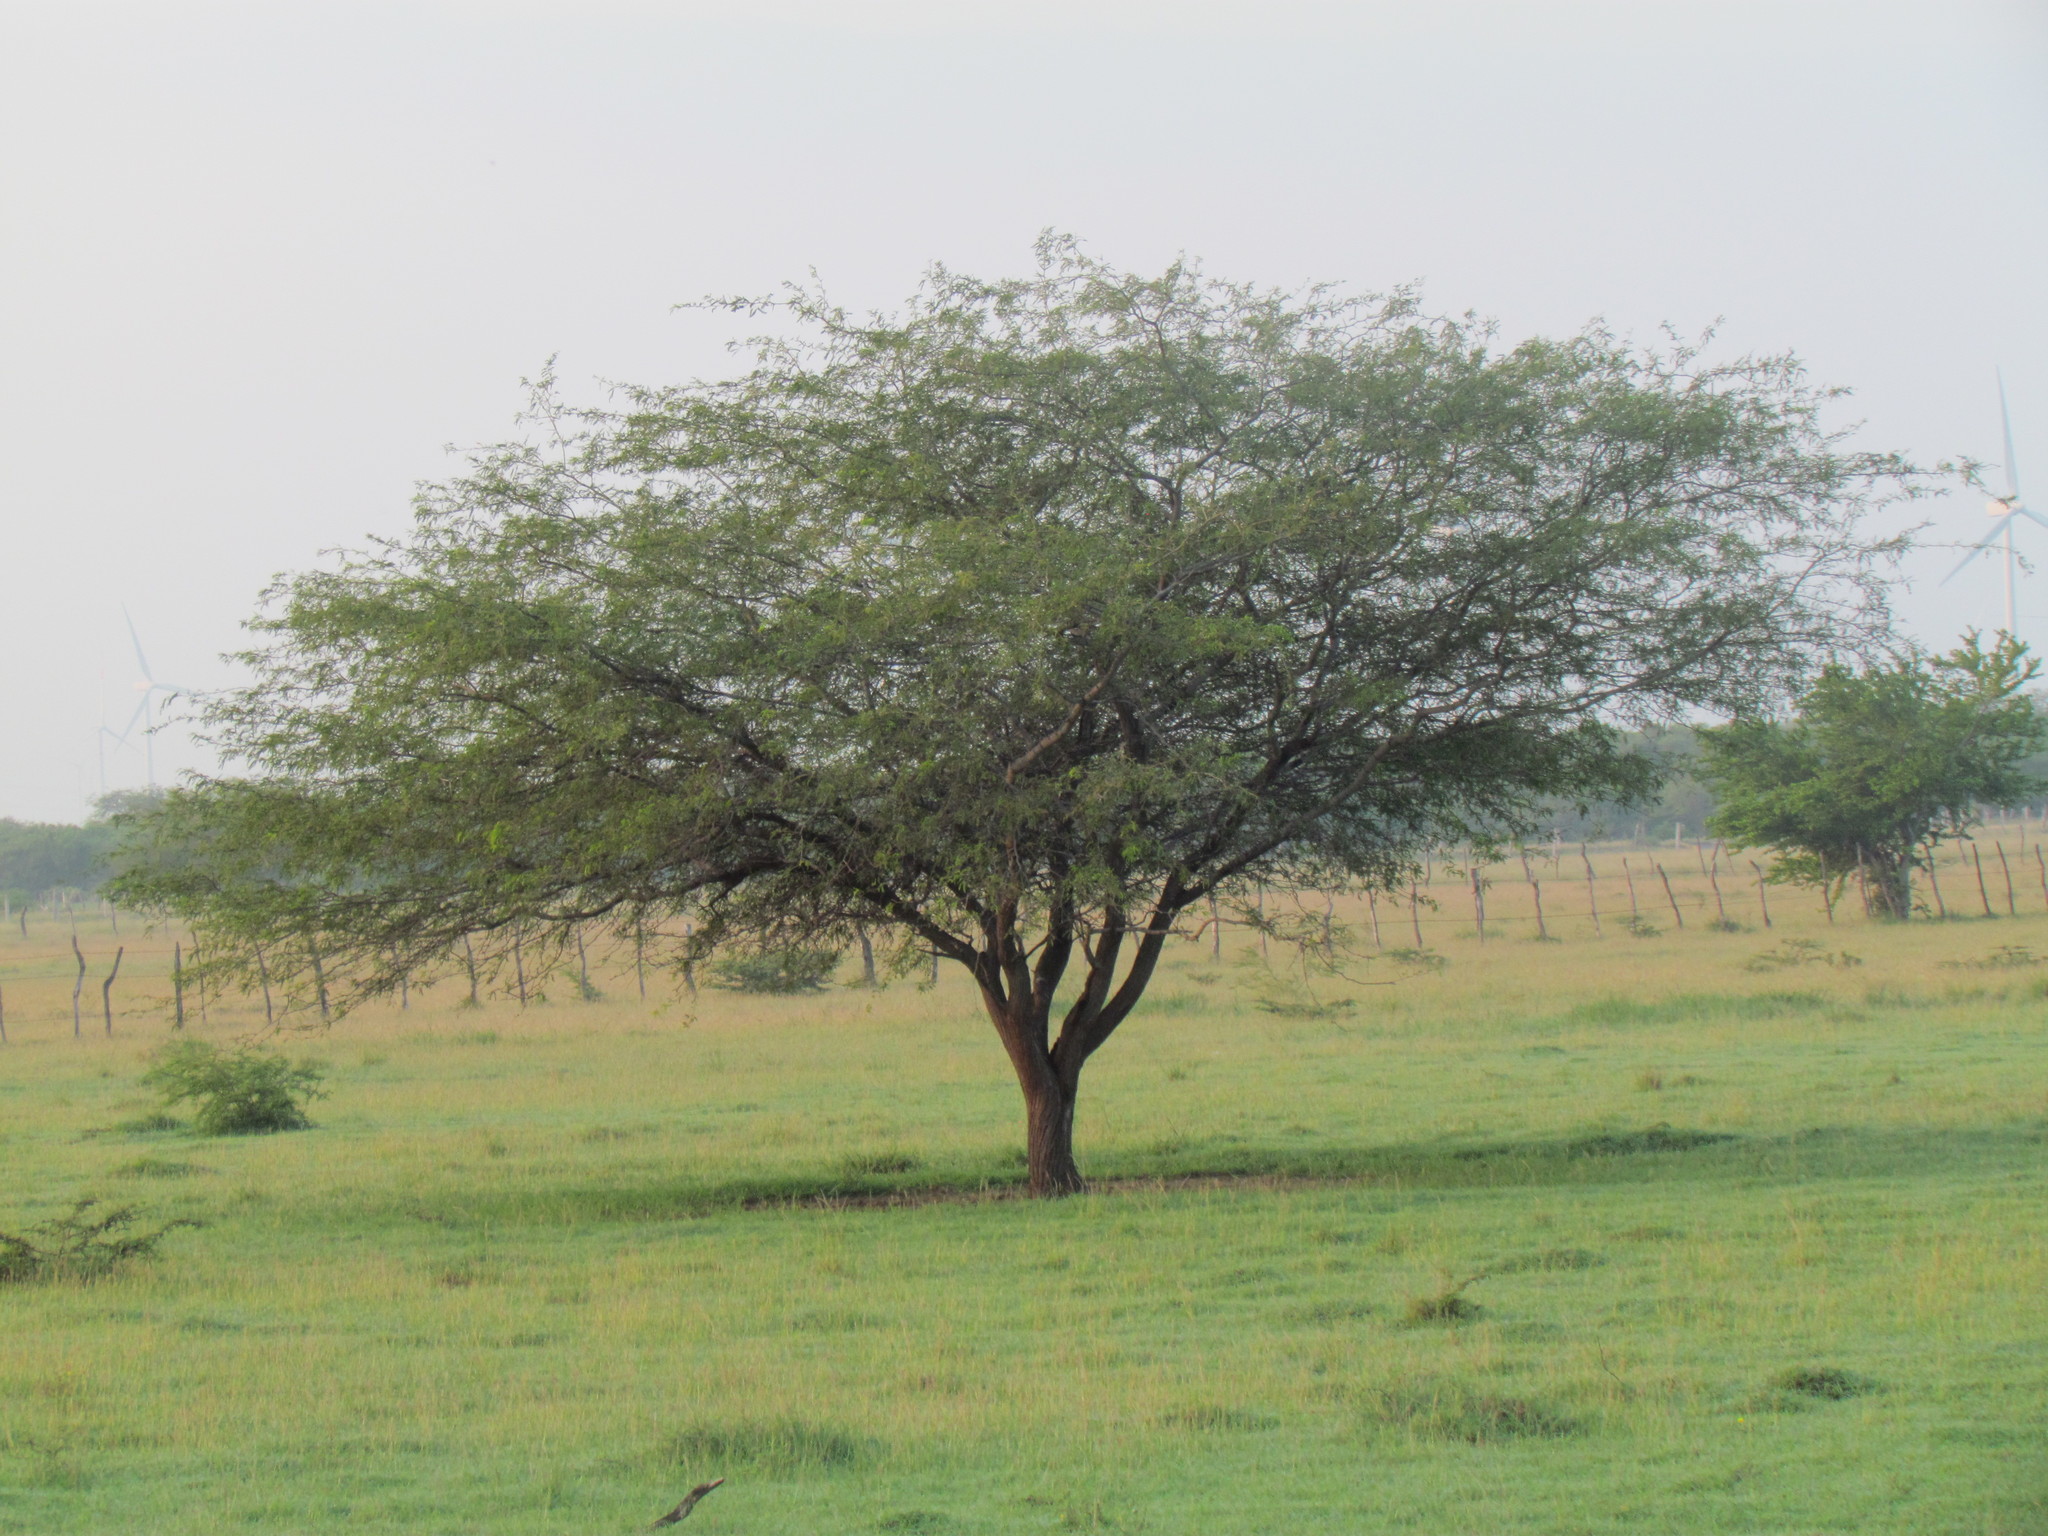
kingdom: Plantae
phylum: Tracheophyta
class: Magnoliopsida
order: Fabales
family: Fabaceae
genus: Prosopis
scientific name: Prosopis laevigata
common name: Smooth mesquite
